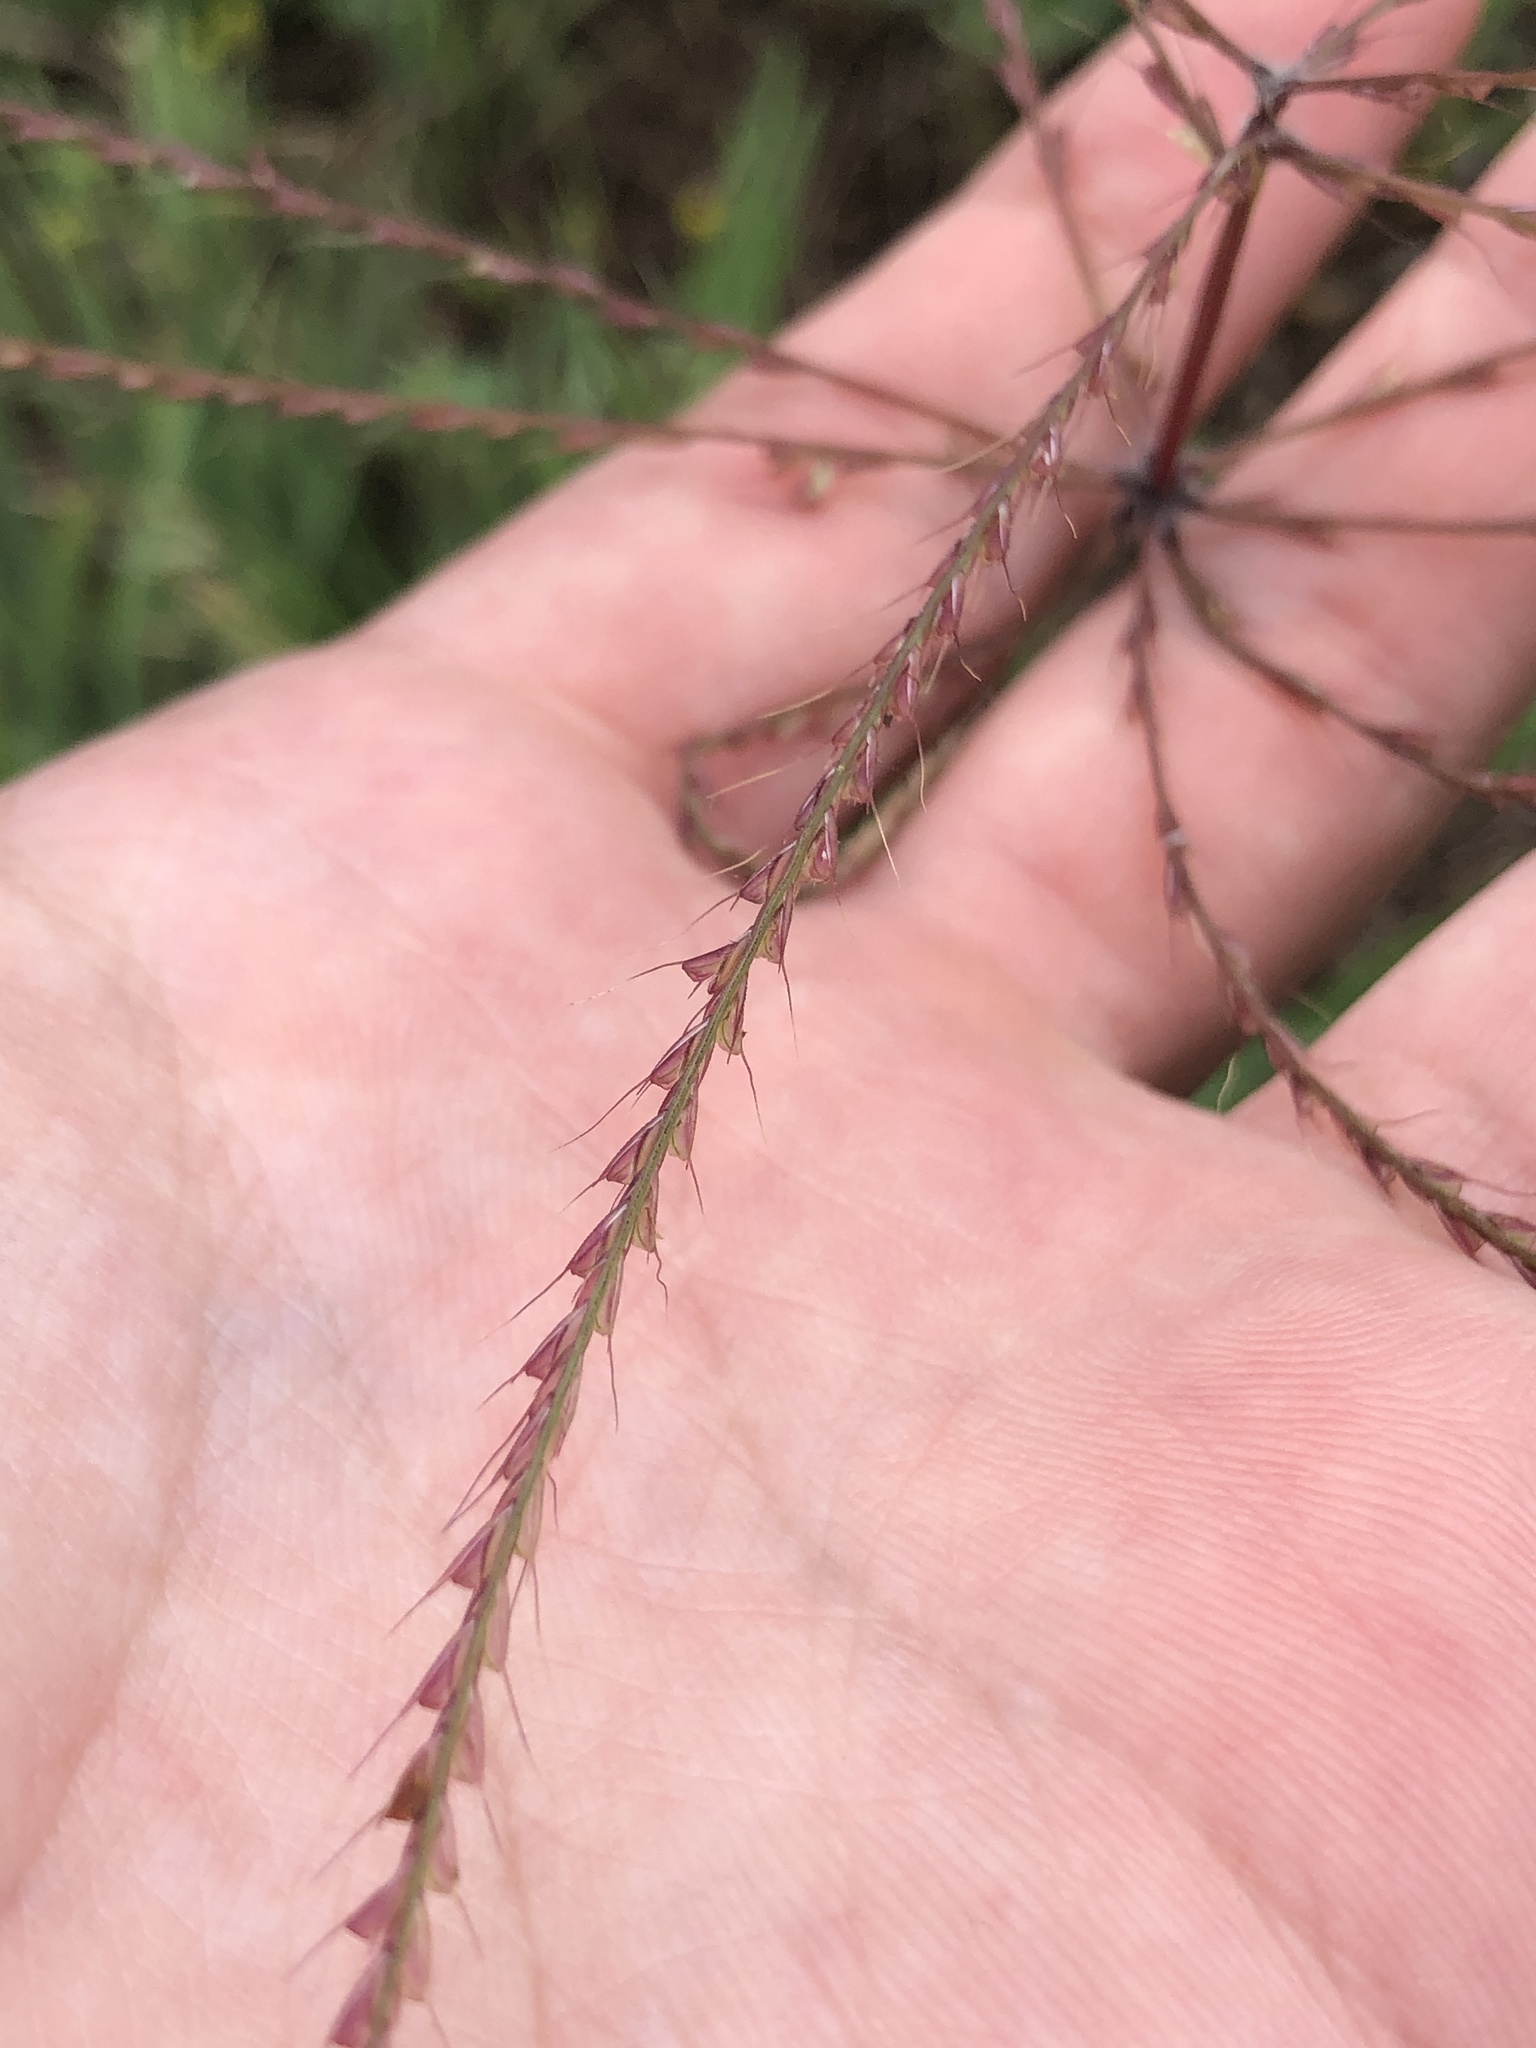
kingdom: Plantae
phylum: Tracheophyta
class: Liliopsida
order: Poales
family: Poaceae
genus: Chloris
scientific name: Chloris verticillata
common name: Tumble windmill grass
